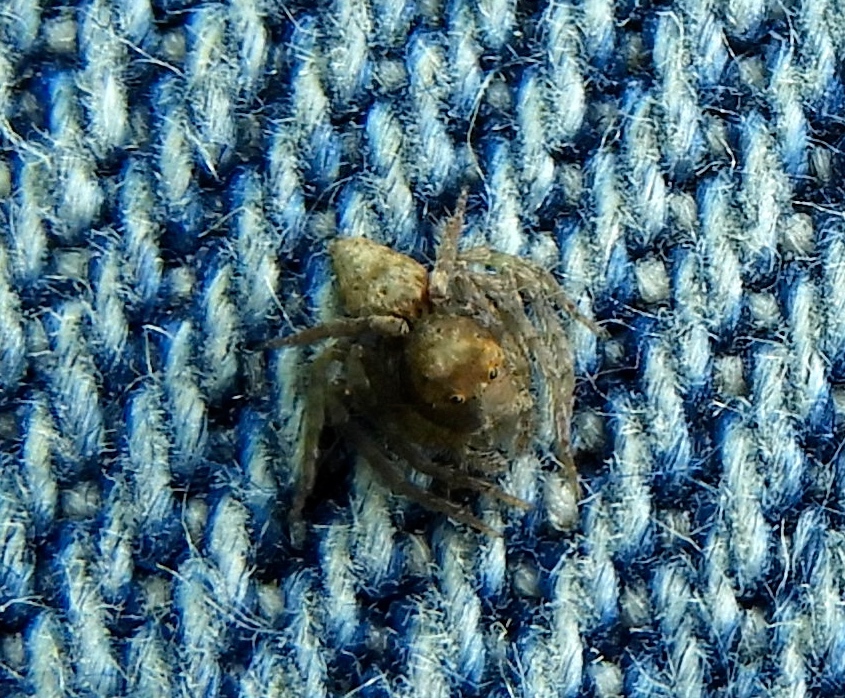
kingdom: Animalia
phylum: Arthropoda
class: Arachnida
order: Araneae
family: Oxyopidae
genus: Hamataliwa
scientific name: Hamataliwa
